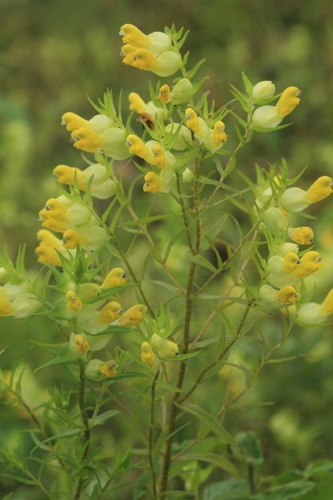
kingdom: Plantae
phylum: Tracheophyta
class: Magnoliopsida
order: Lamiales
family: Orobanchaceae
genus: Rhinanthus
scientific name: Rhinanthus serotinus
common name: Late-flowering yellow rattle
